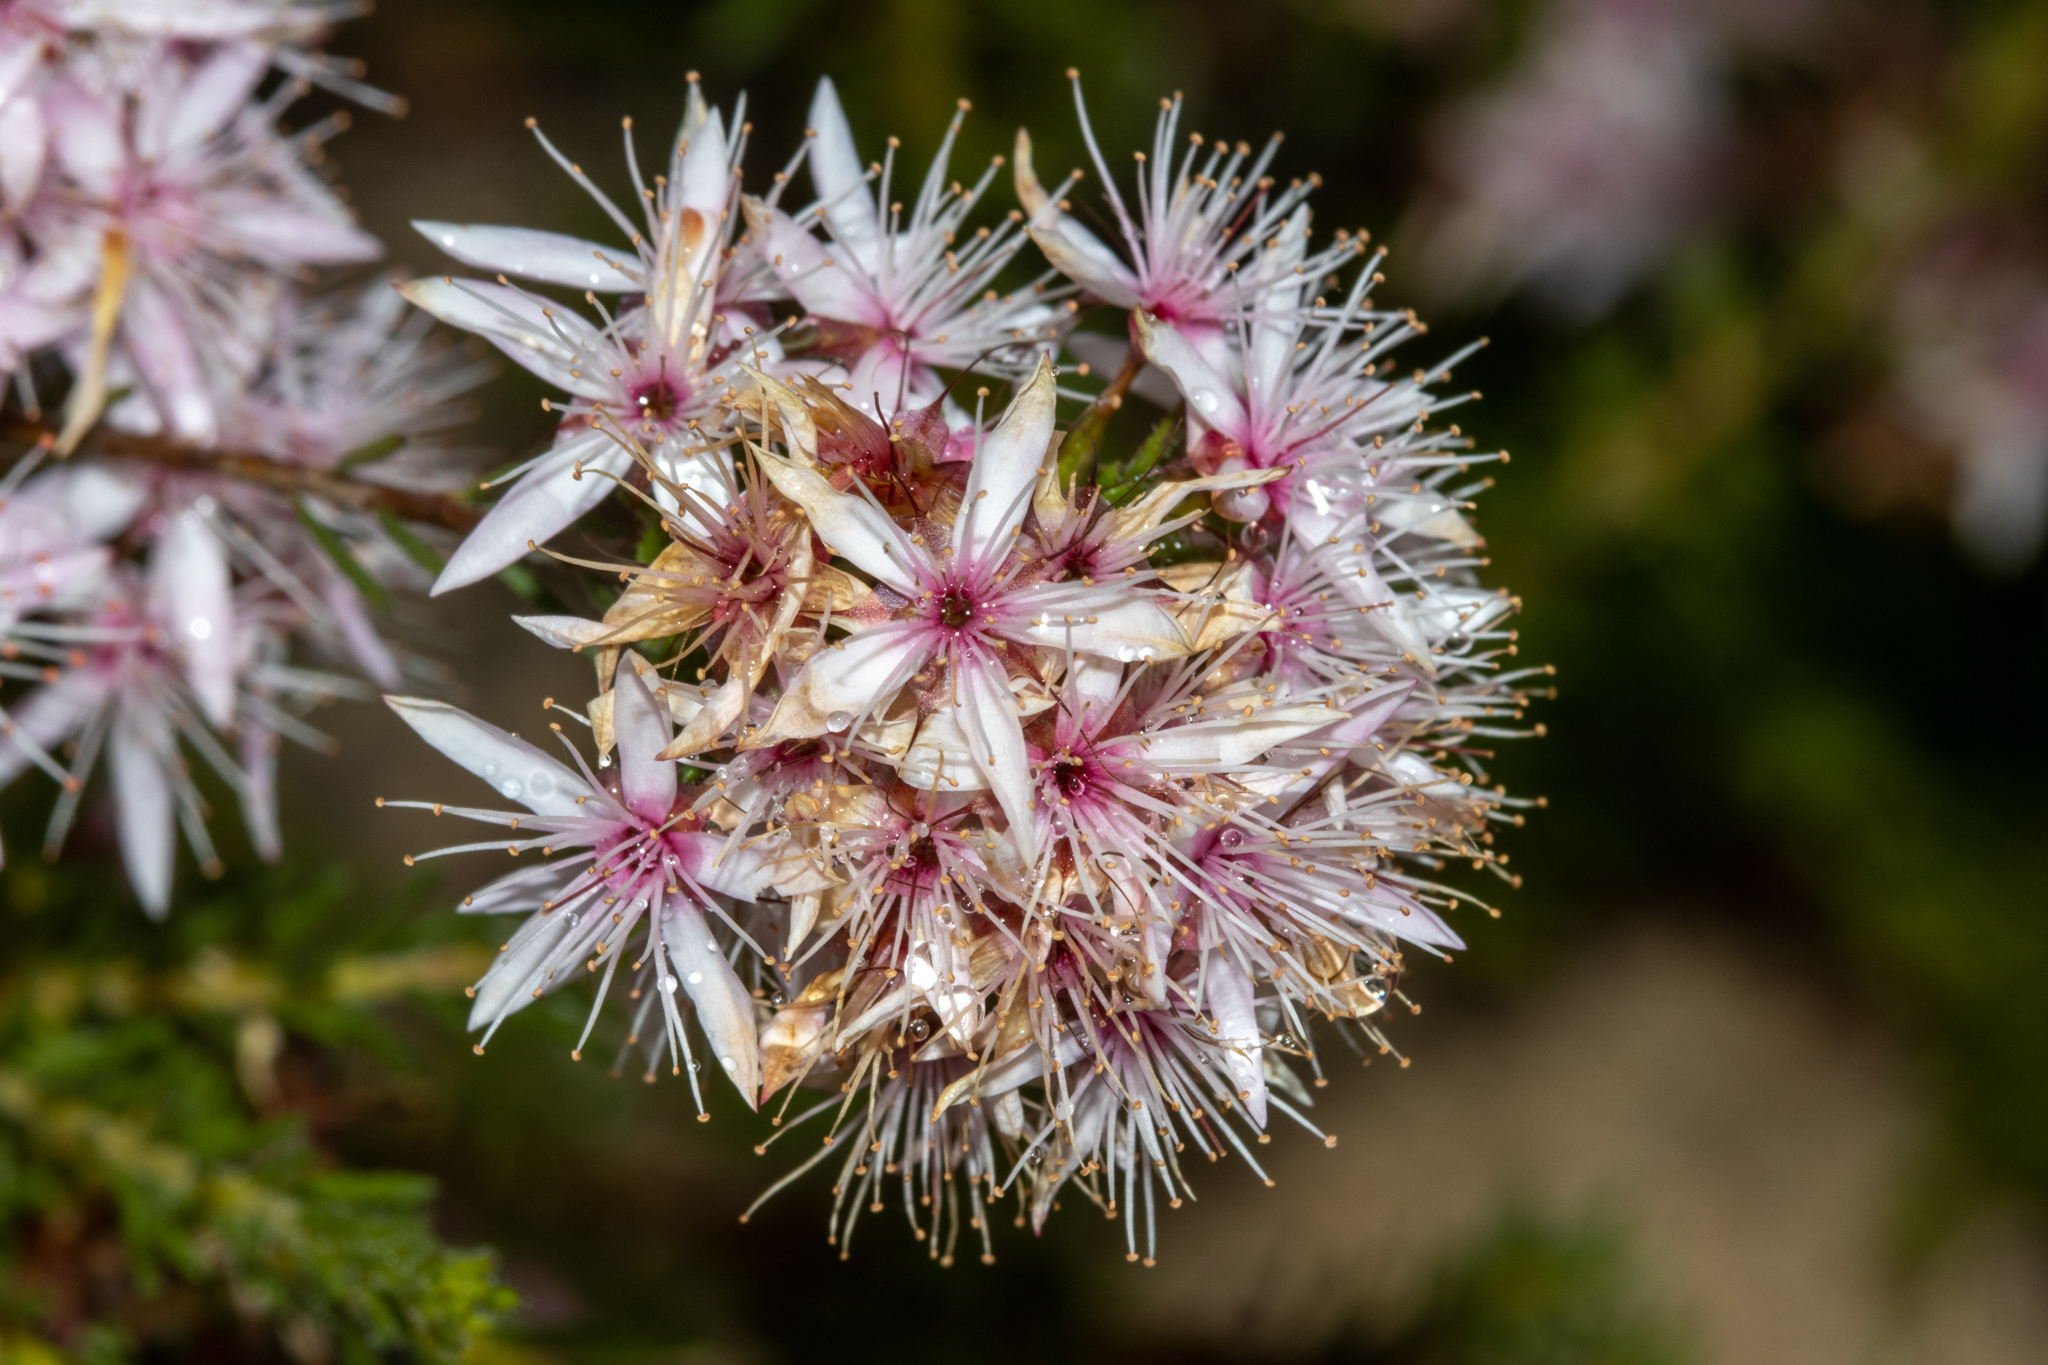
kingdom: Plantae
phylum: Tracheophyta
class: Magnoliopsida
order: Myrtales
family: Myrtaceae
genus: Calytrix
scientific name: Calytrix tetragona
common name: Common fringe myrtle
